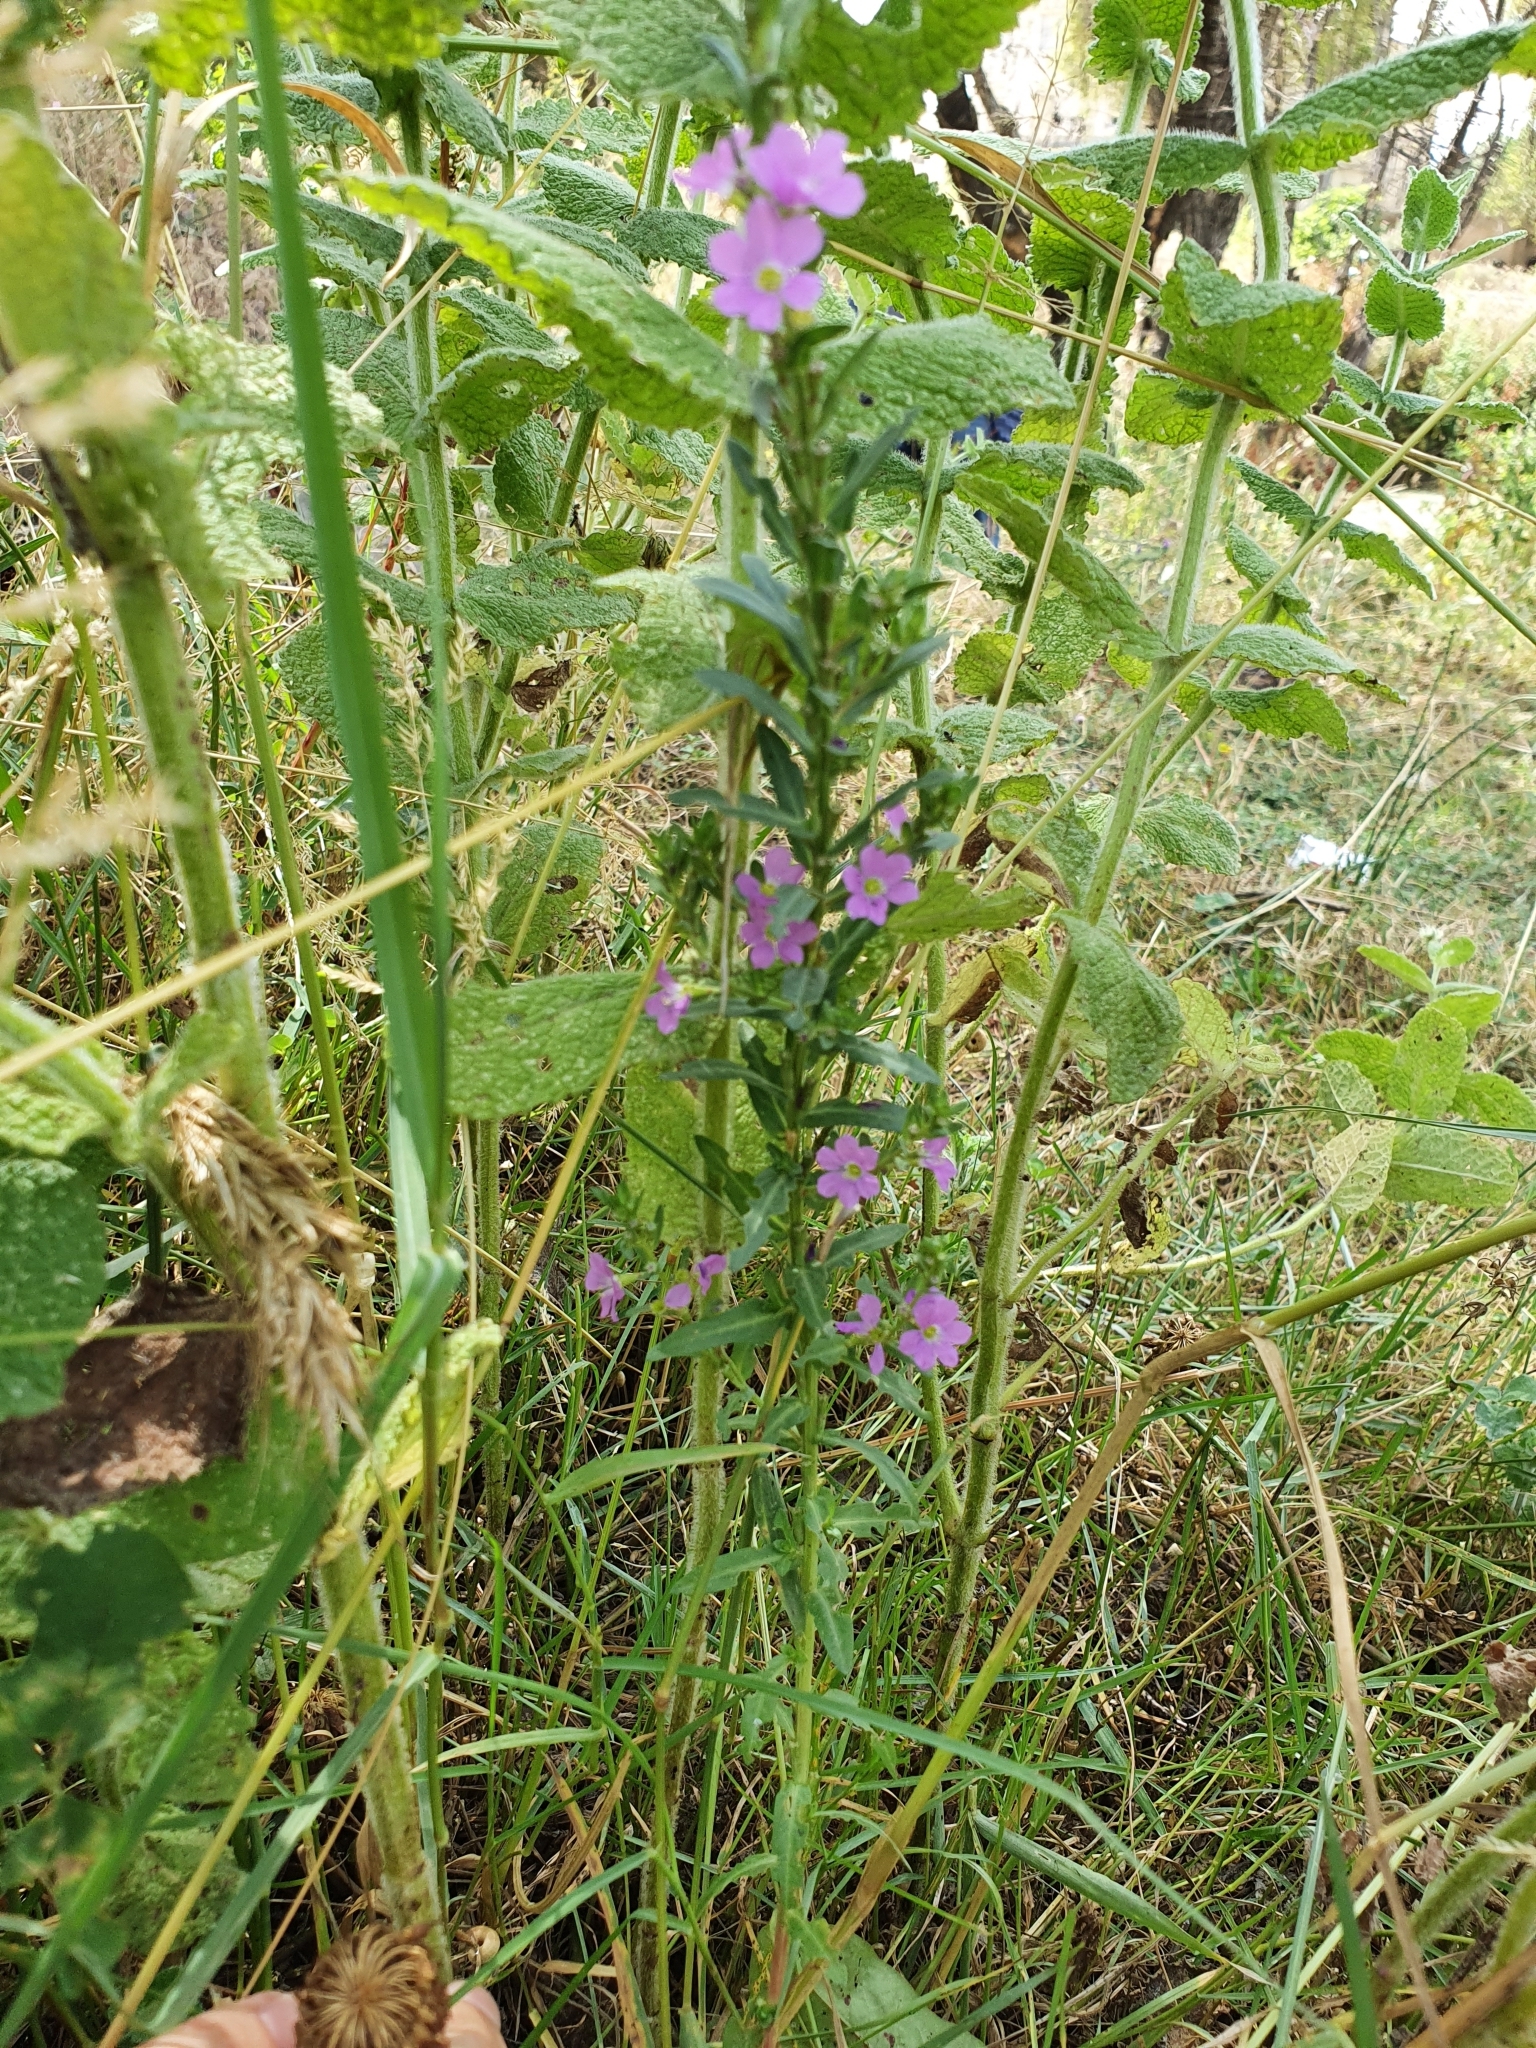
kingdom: Plantae
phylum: Tracheophyta
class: Magnoliopsida
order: Myrtales
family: Lythraceae
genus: Lythrum
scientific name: Lythrum junceum
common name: False grass-poly
